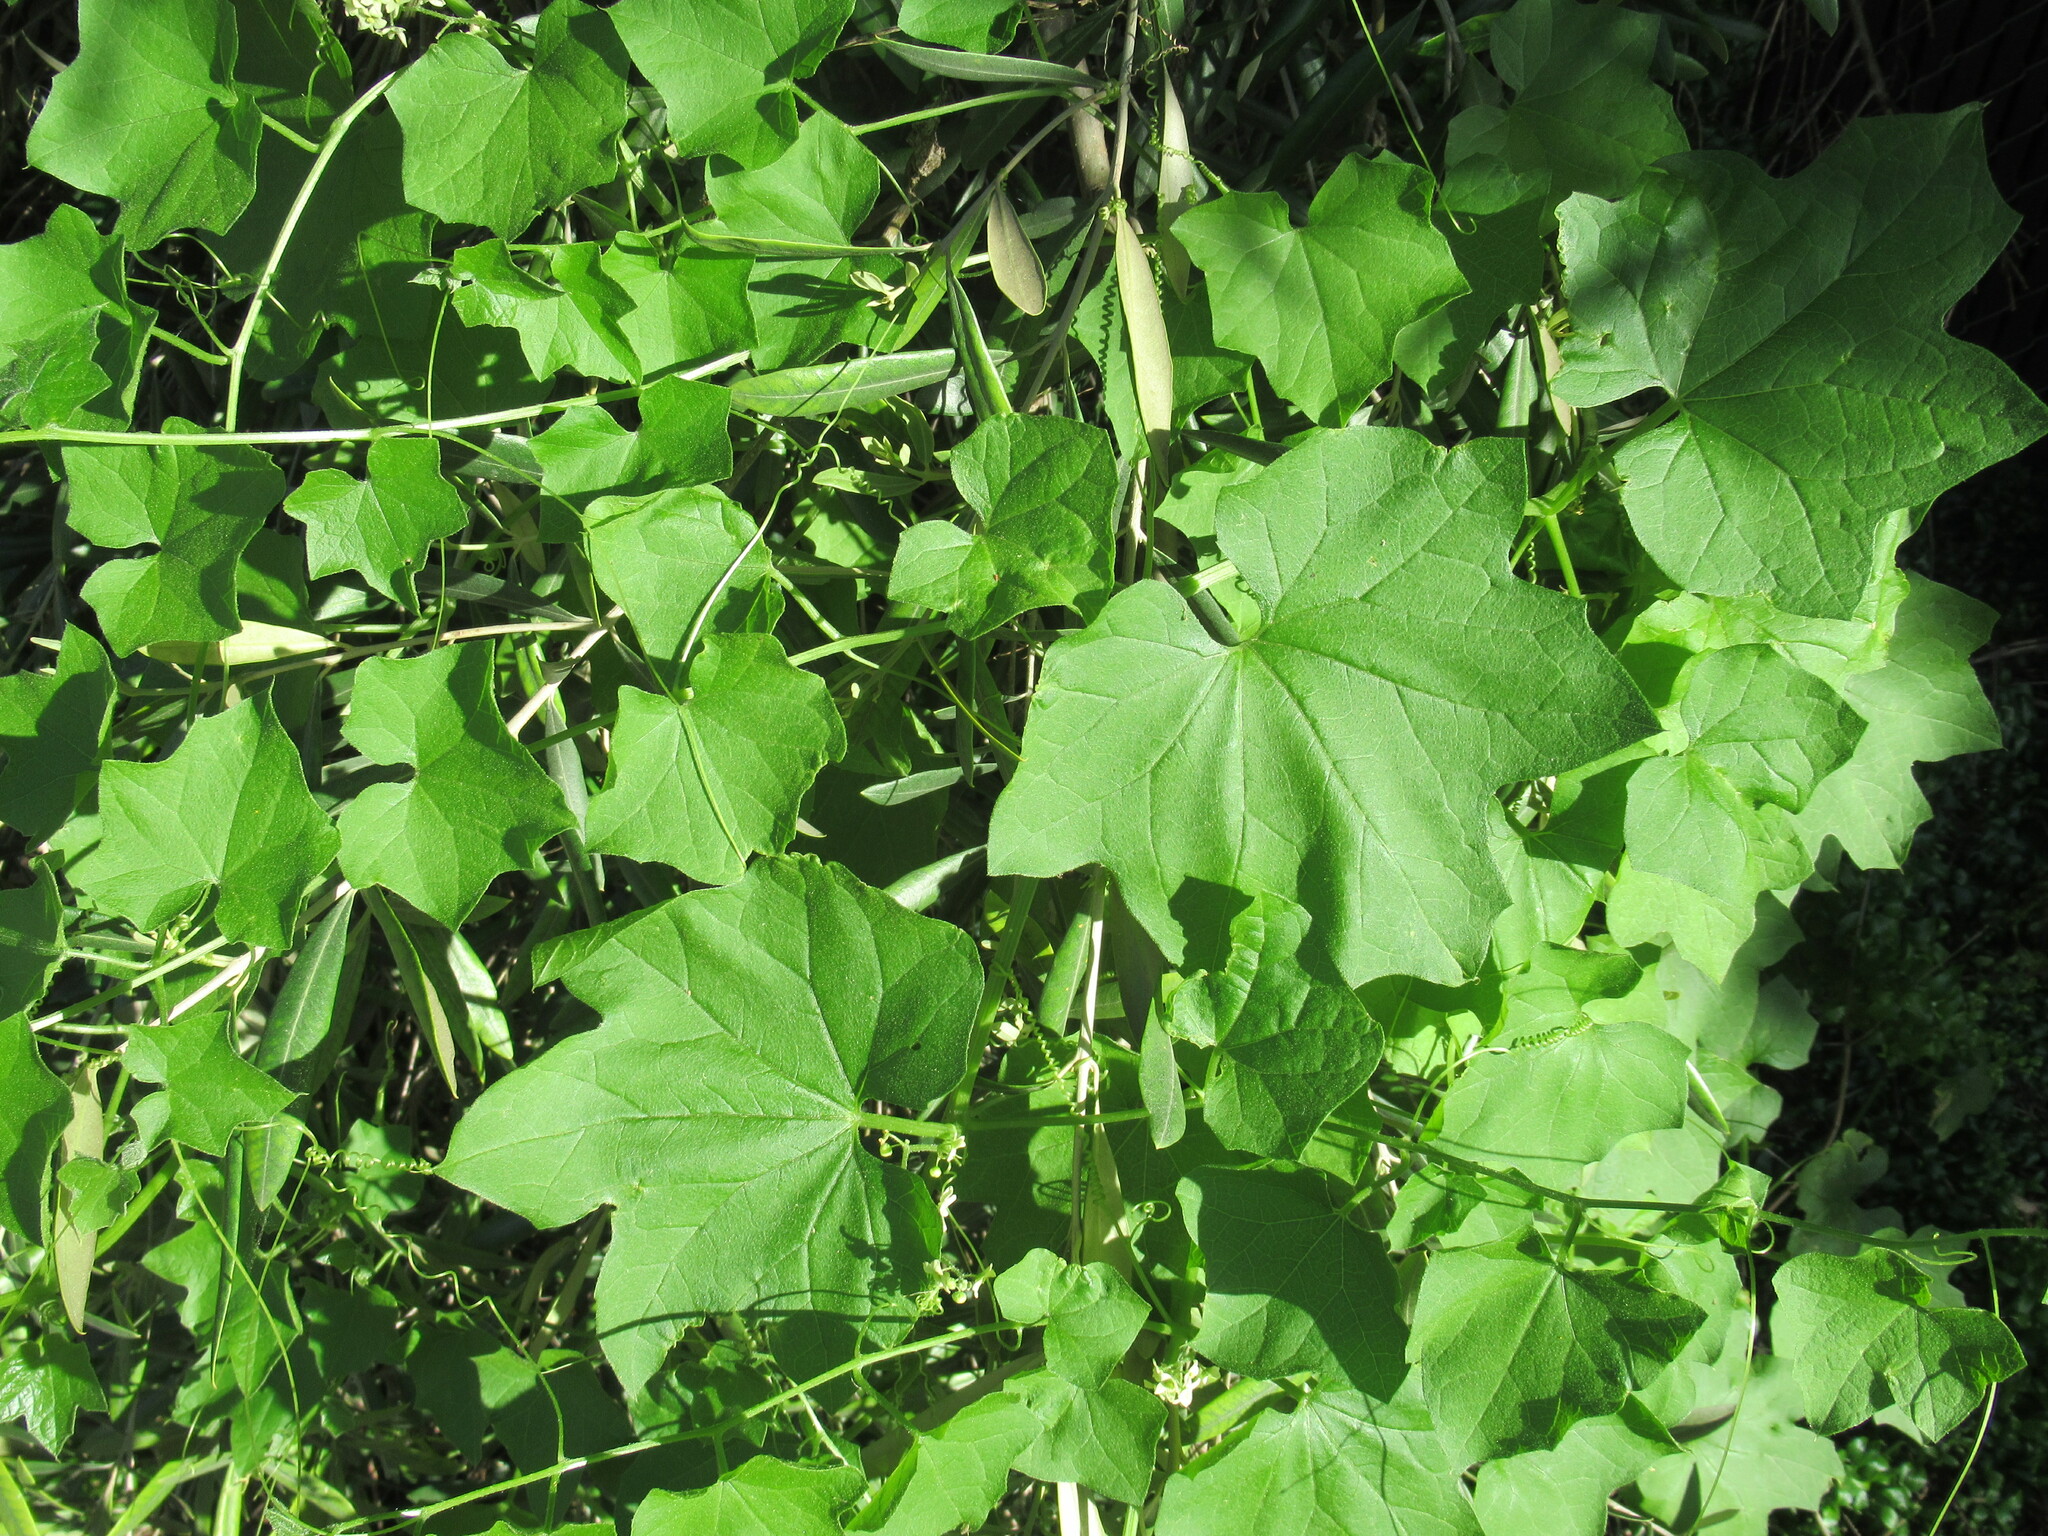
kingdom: Plantae
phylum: Tracheophyta
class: Magnoliopsida
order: Cucurbitales
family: Cucurbitaceae
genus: Marah
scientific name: Marah fabacea
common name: California manroot
